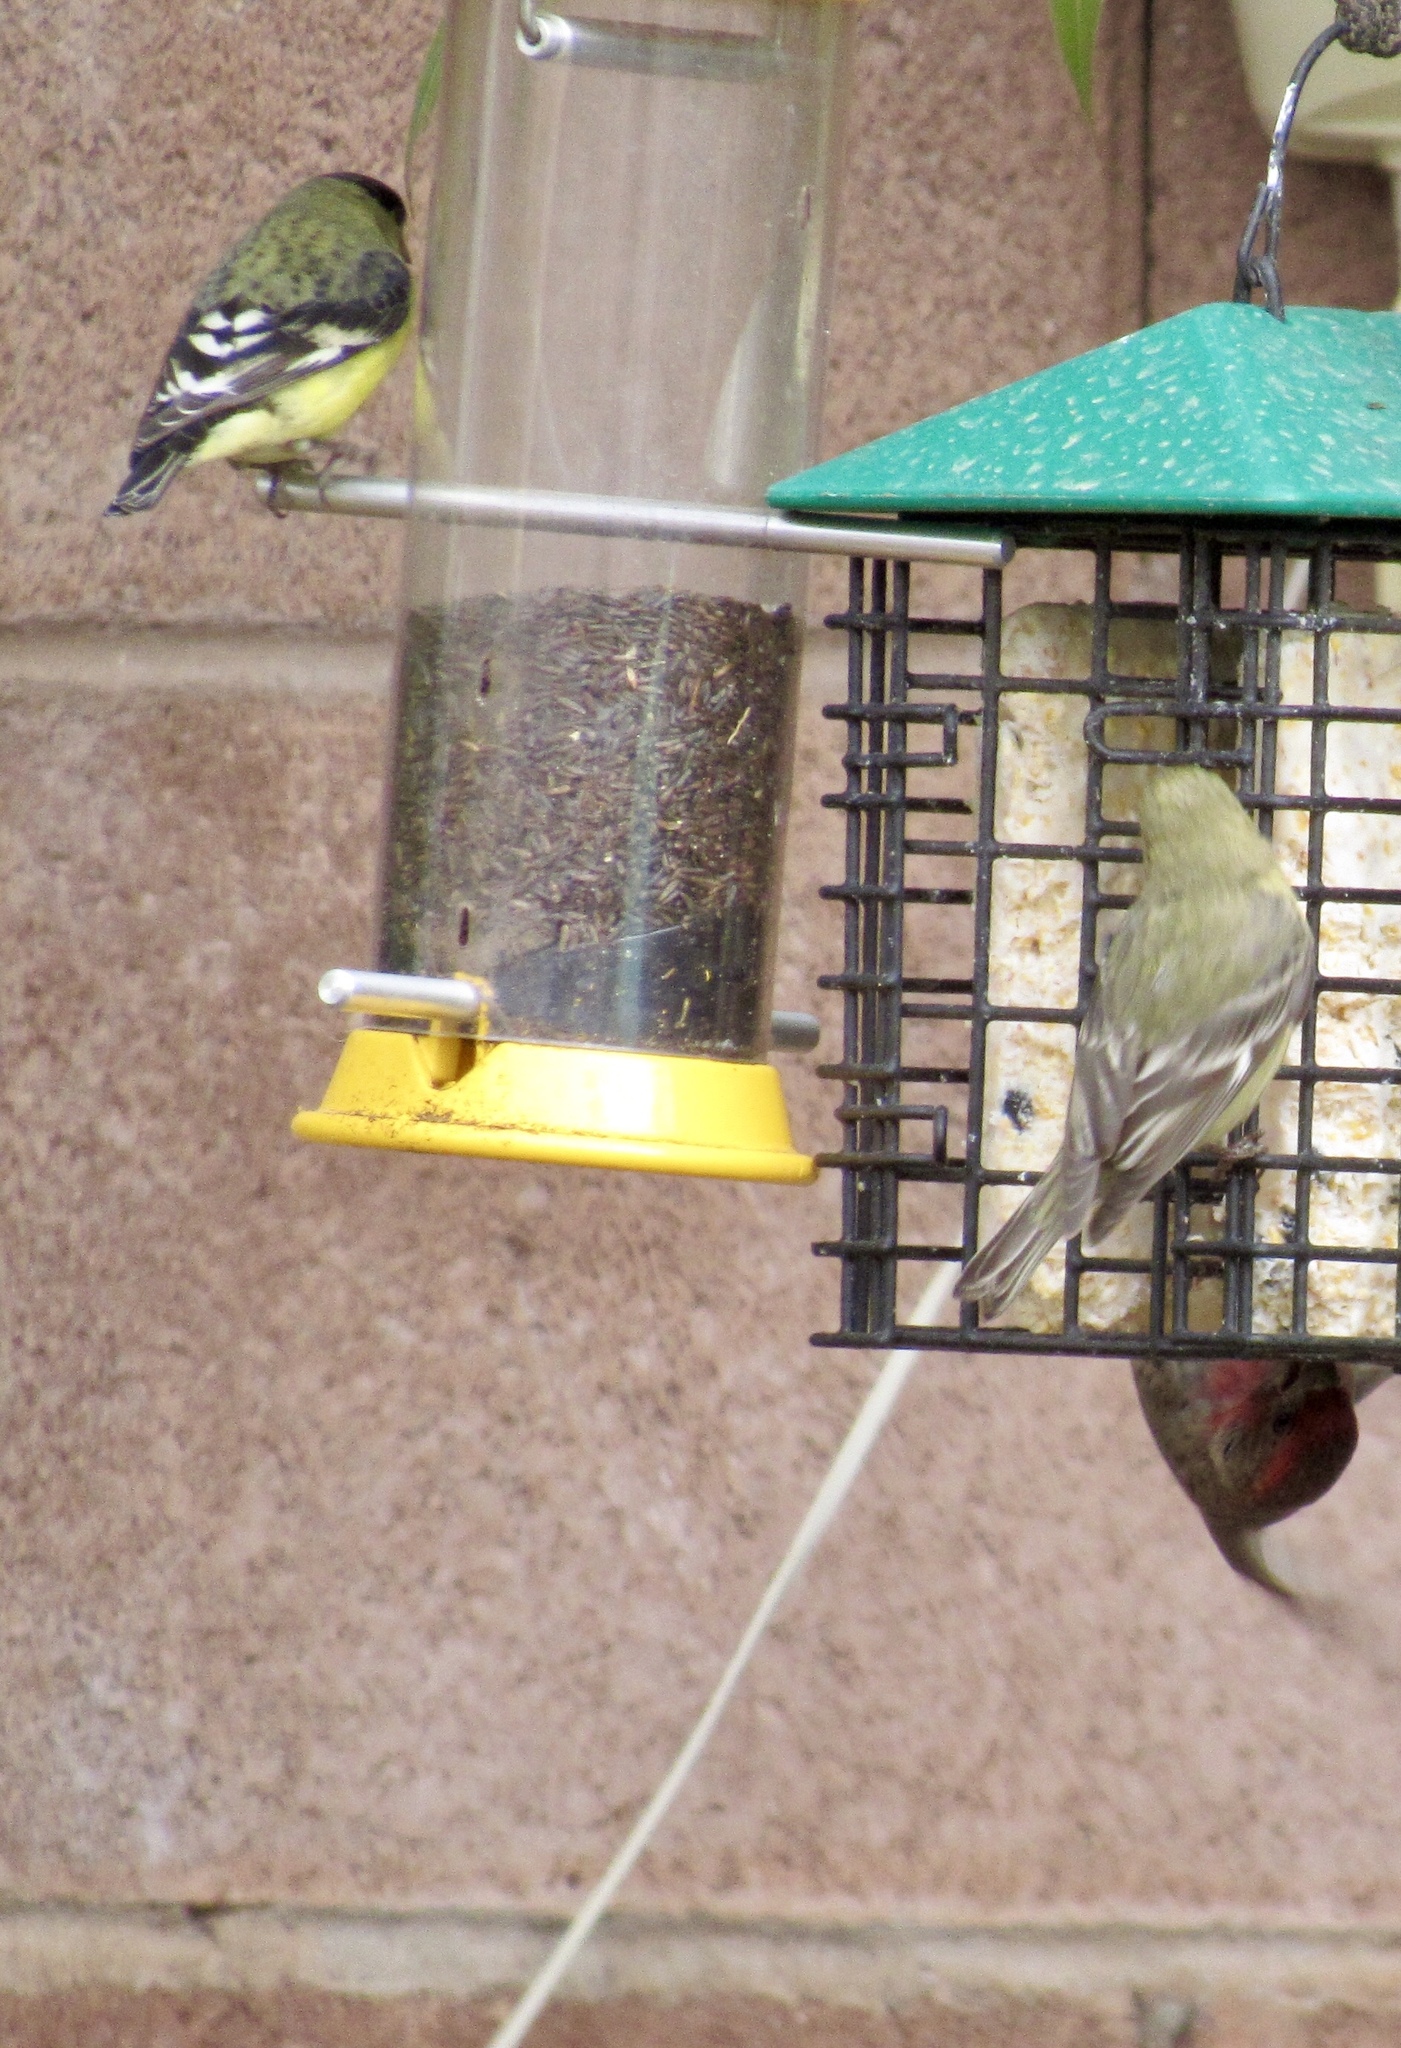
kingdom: Animalia
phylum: Chordata
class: Aves
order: Passeriformes
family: Fringillidae
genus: Spinus
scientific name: Spinus psaltria
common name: Lesser goldfinch
